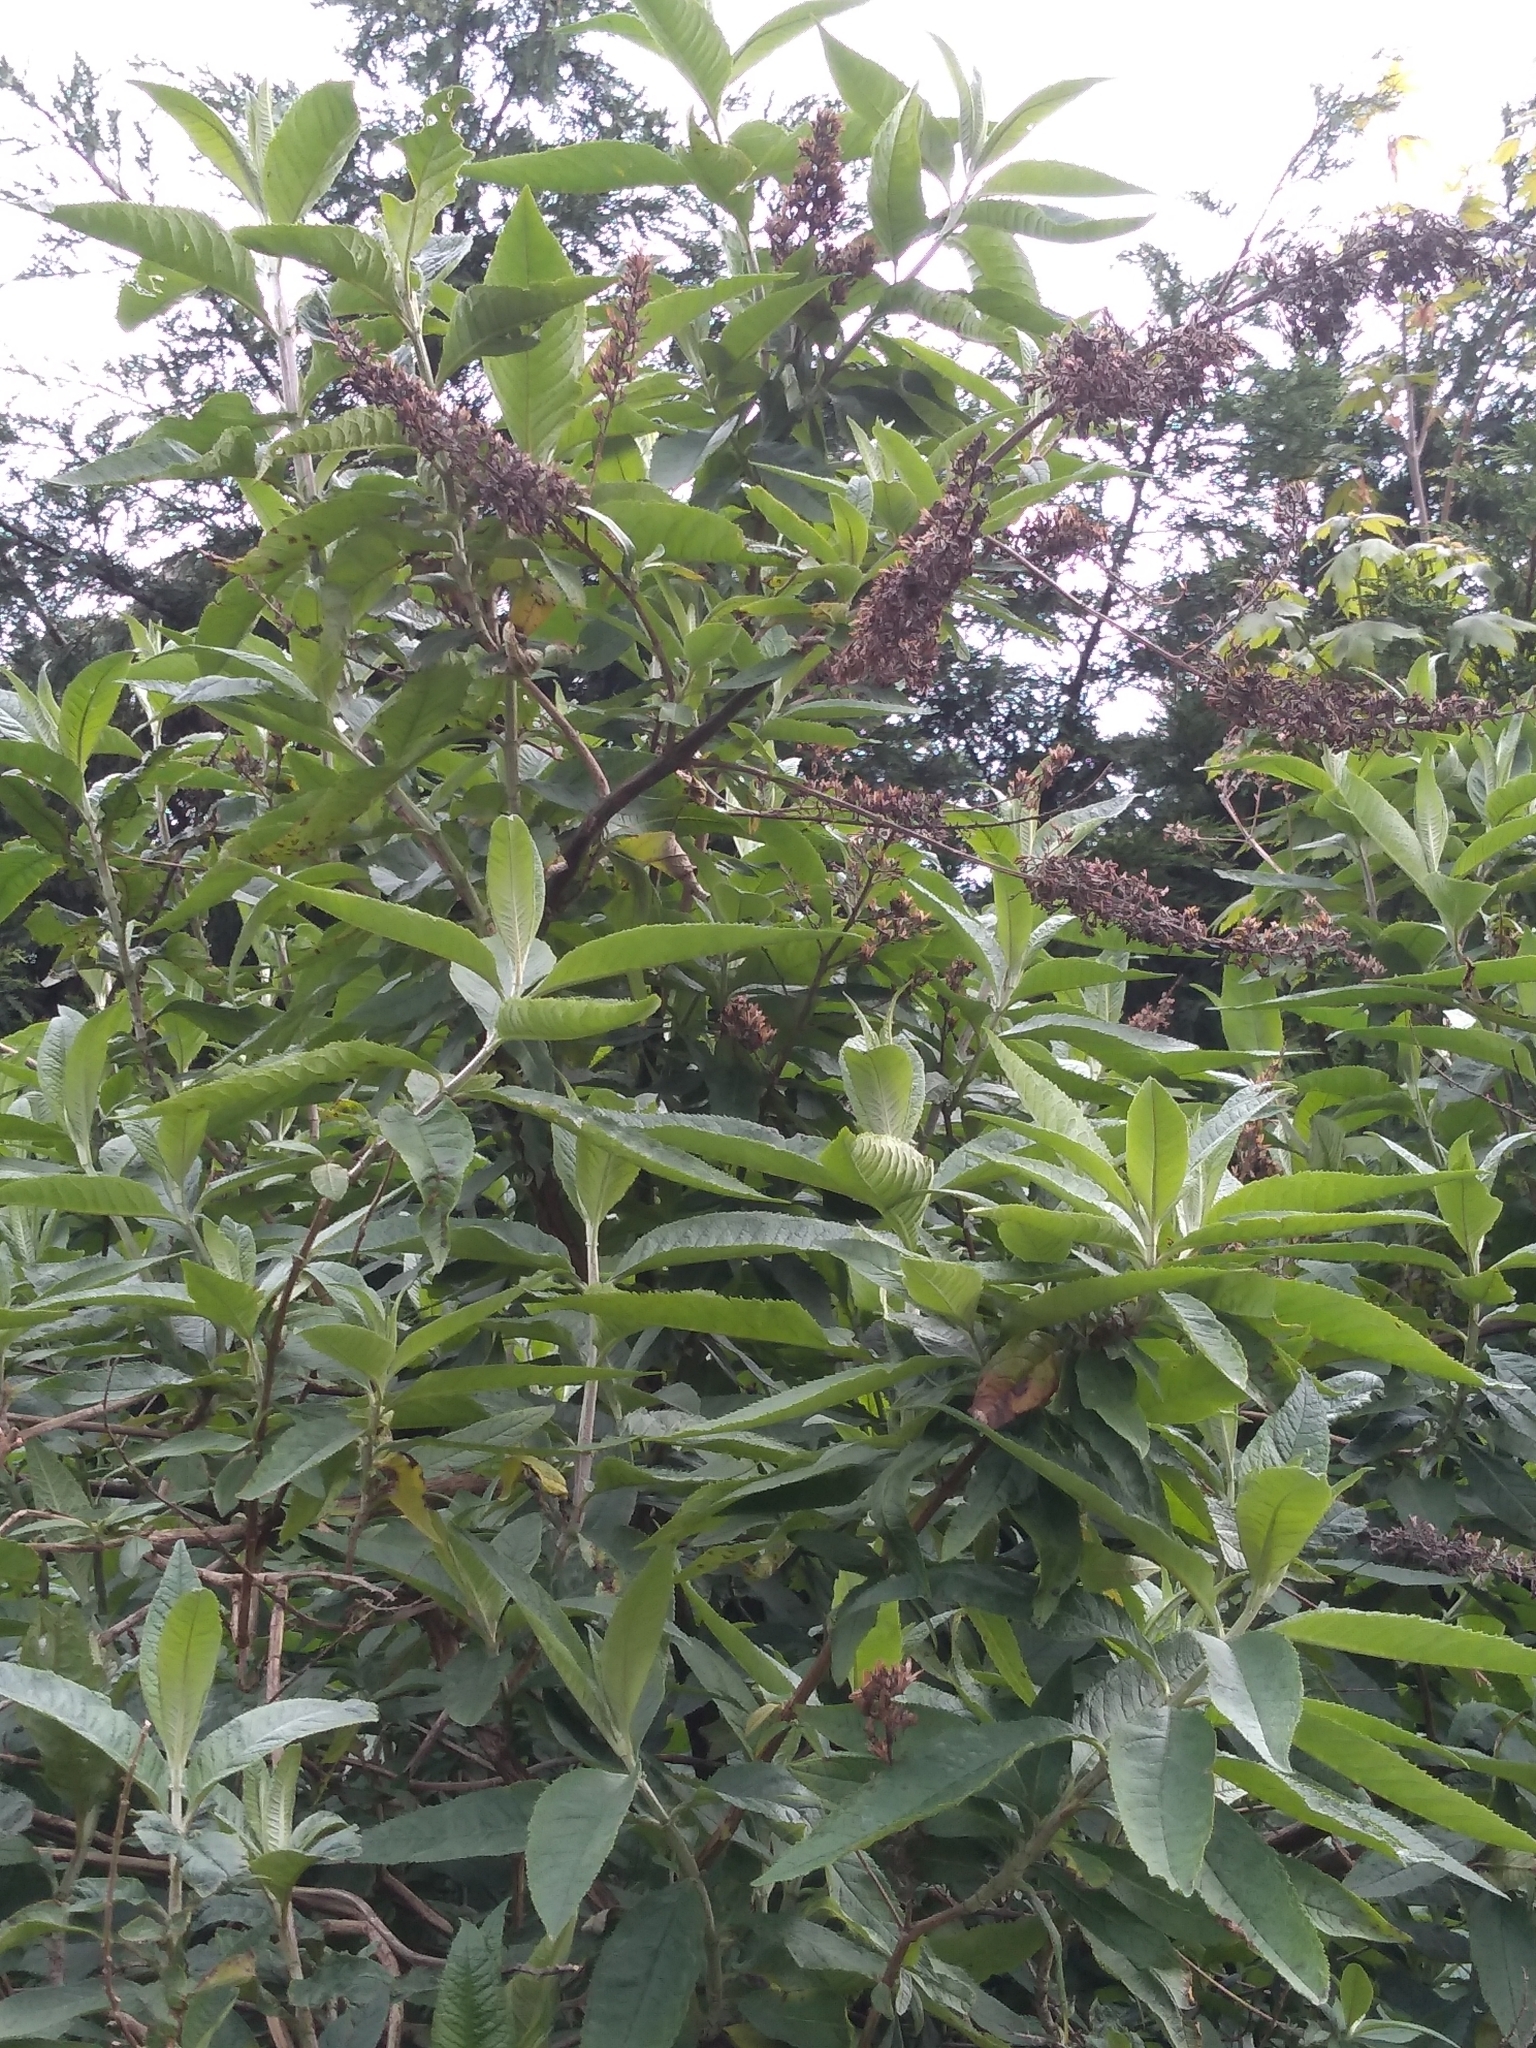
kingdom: Plantae
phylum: Tracheophyta
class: Magnoliopsida
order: Lamiales
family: Scrophulariaceae
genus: Buddleja
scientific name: Buddleja davidii
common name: Butterfly-bush
